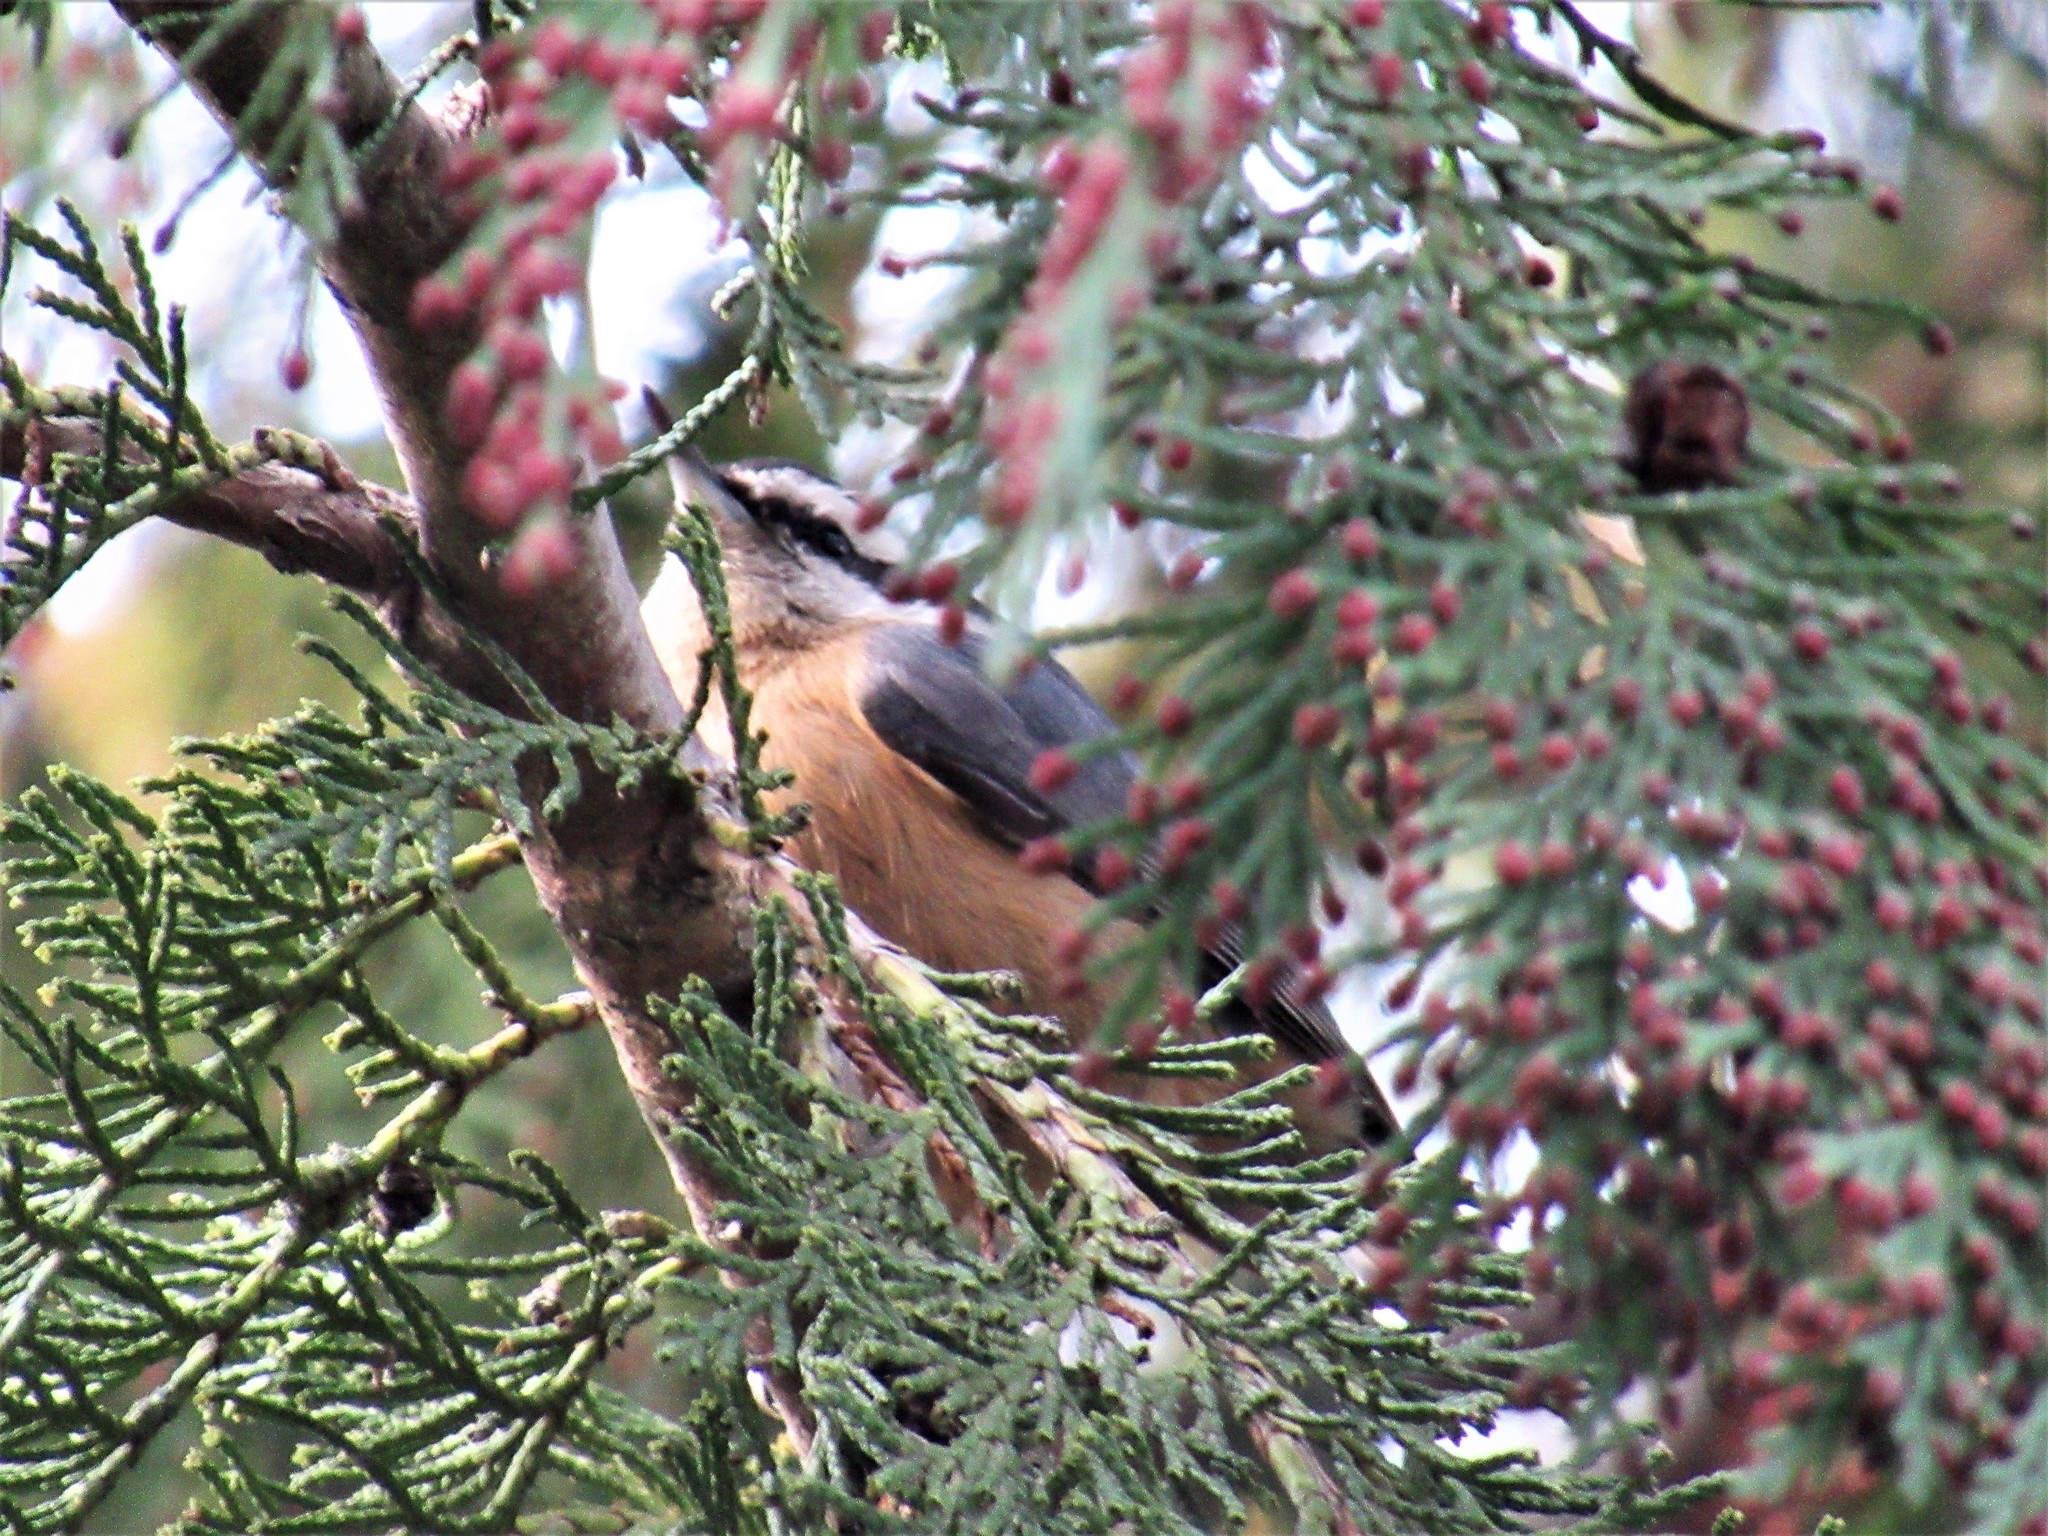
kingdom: Animalia
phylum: Chordata
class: Aves
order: Passeriformes
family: Sittidae
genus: Sitta
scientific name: Sitta canadensis
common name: Red-breasted nuthatch
